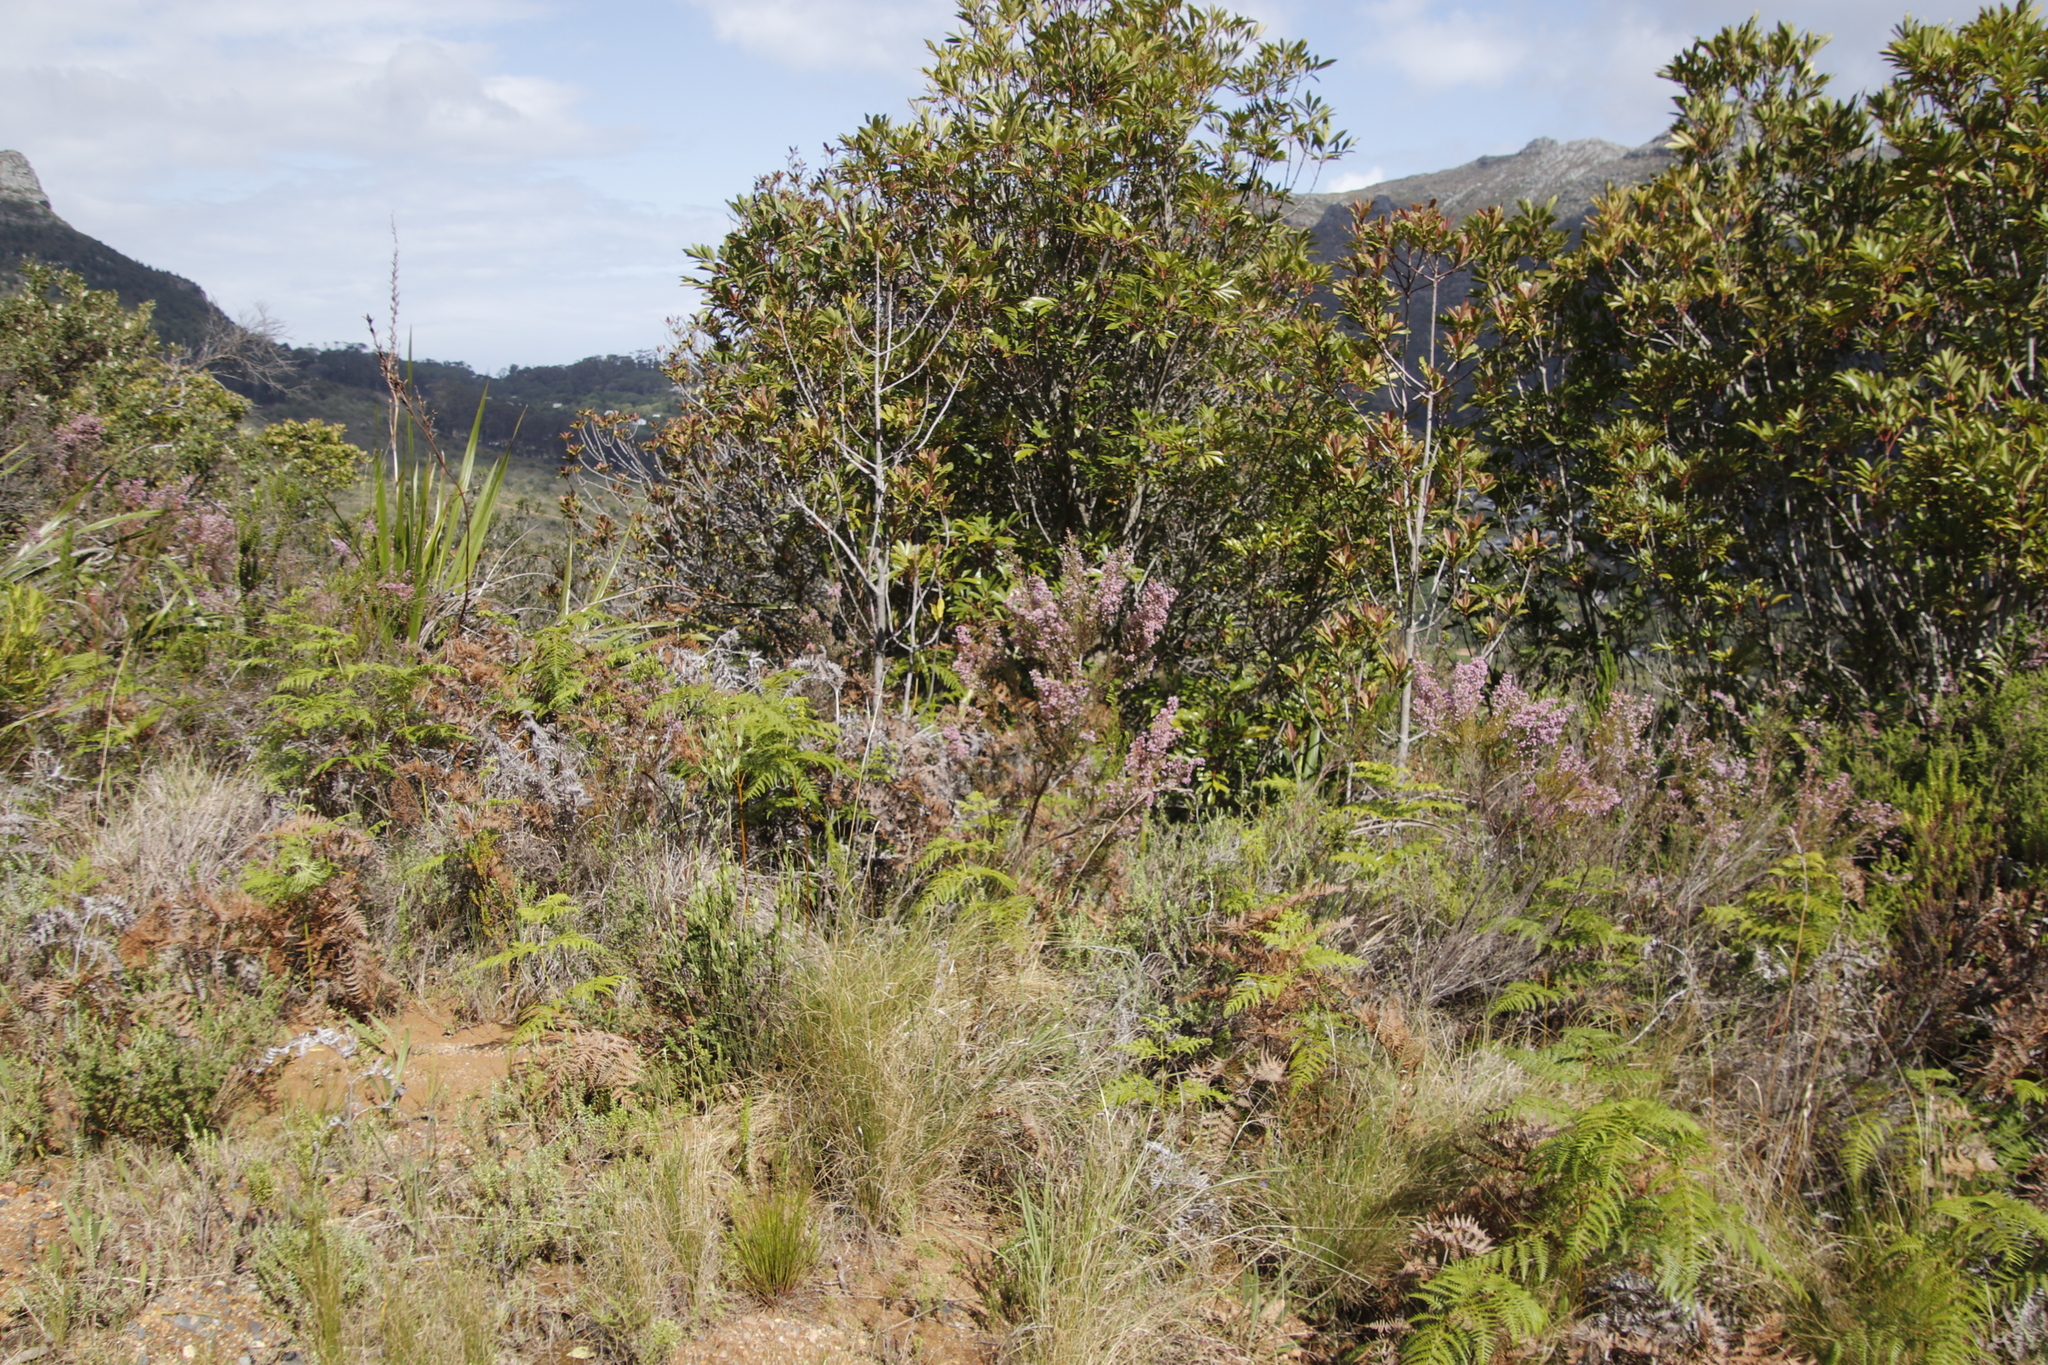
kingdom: Plantae
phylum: Tracheophyta
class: Magnoliopsida
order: Ericales
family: Ericaceae
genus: Erica
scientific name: Erica hirtiflora
